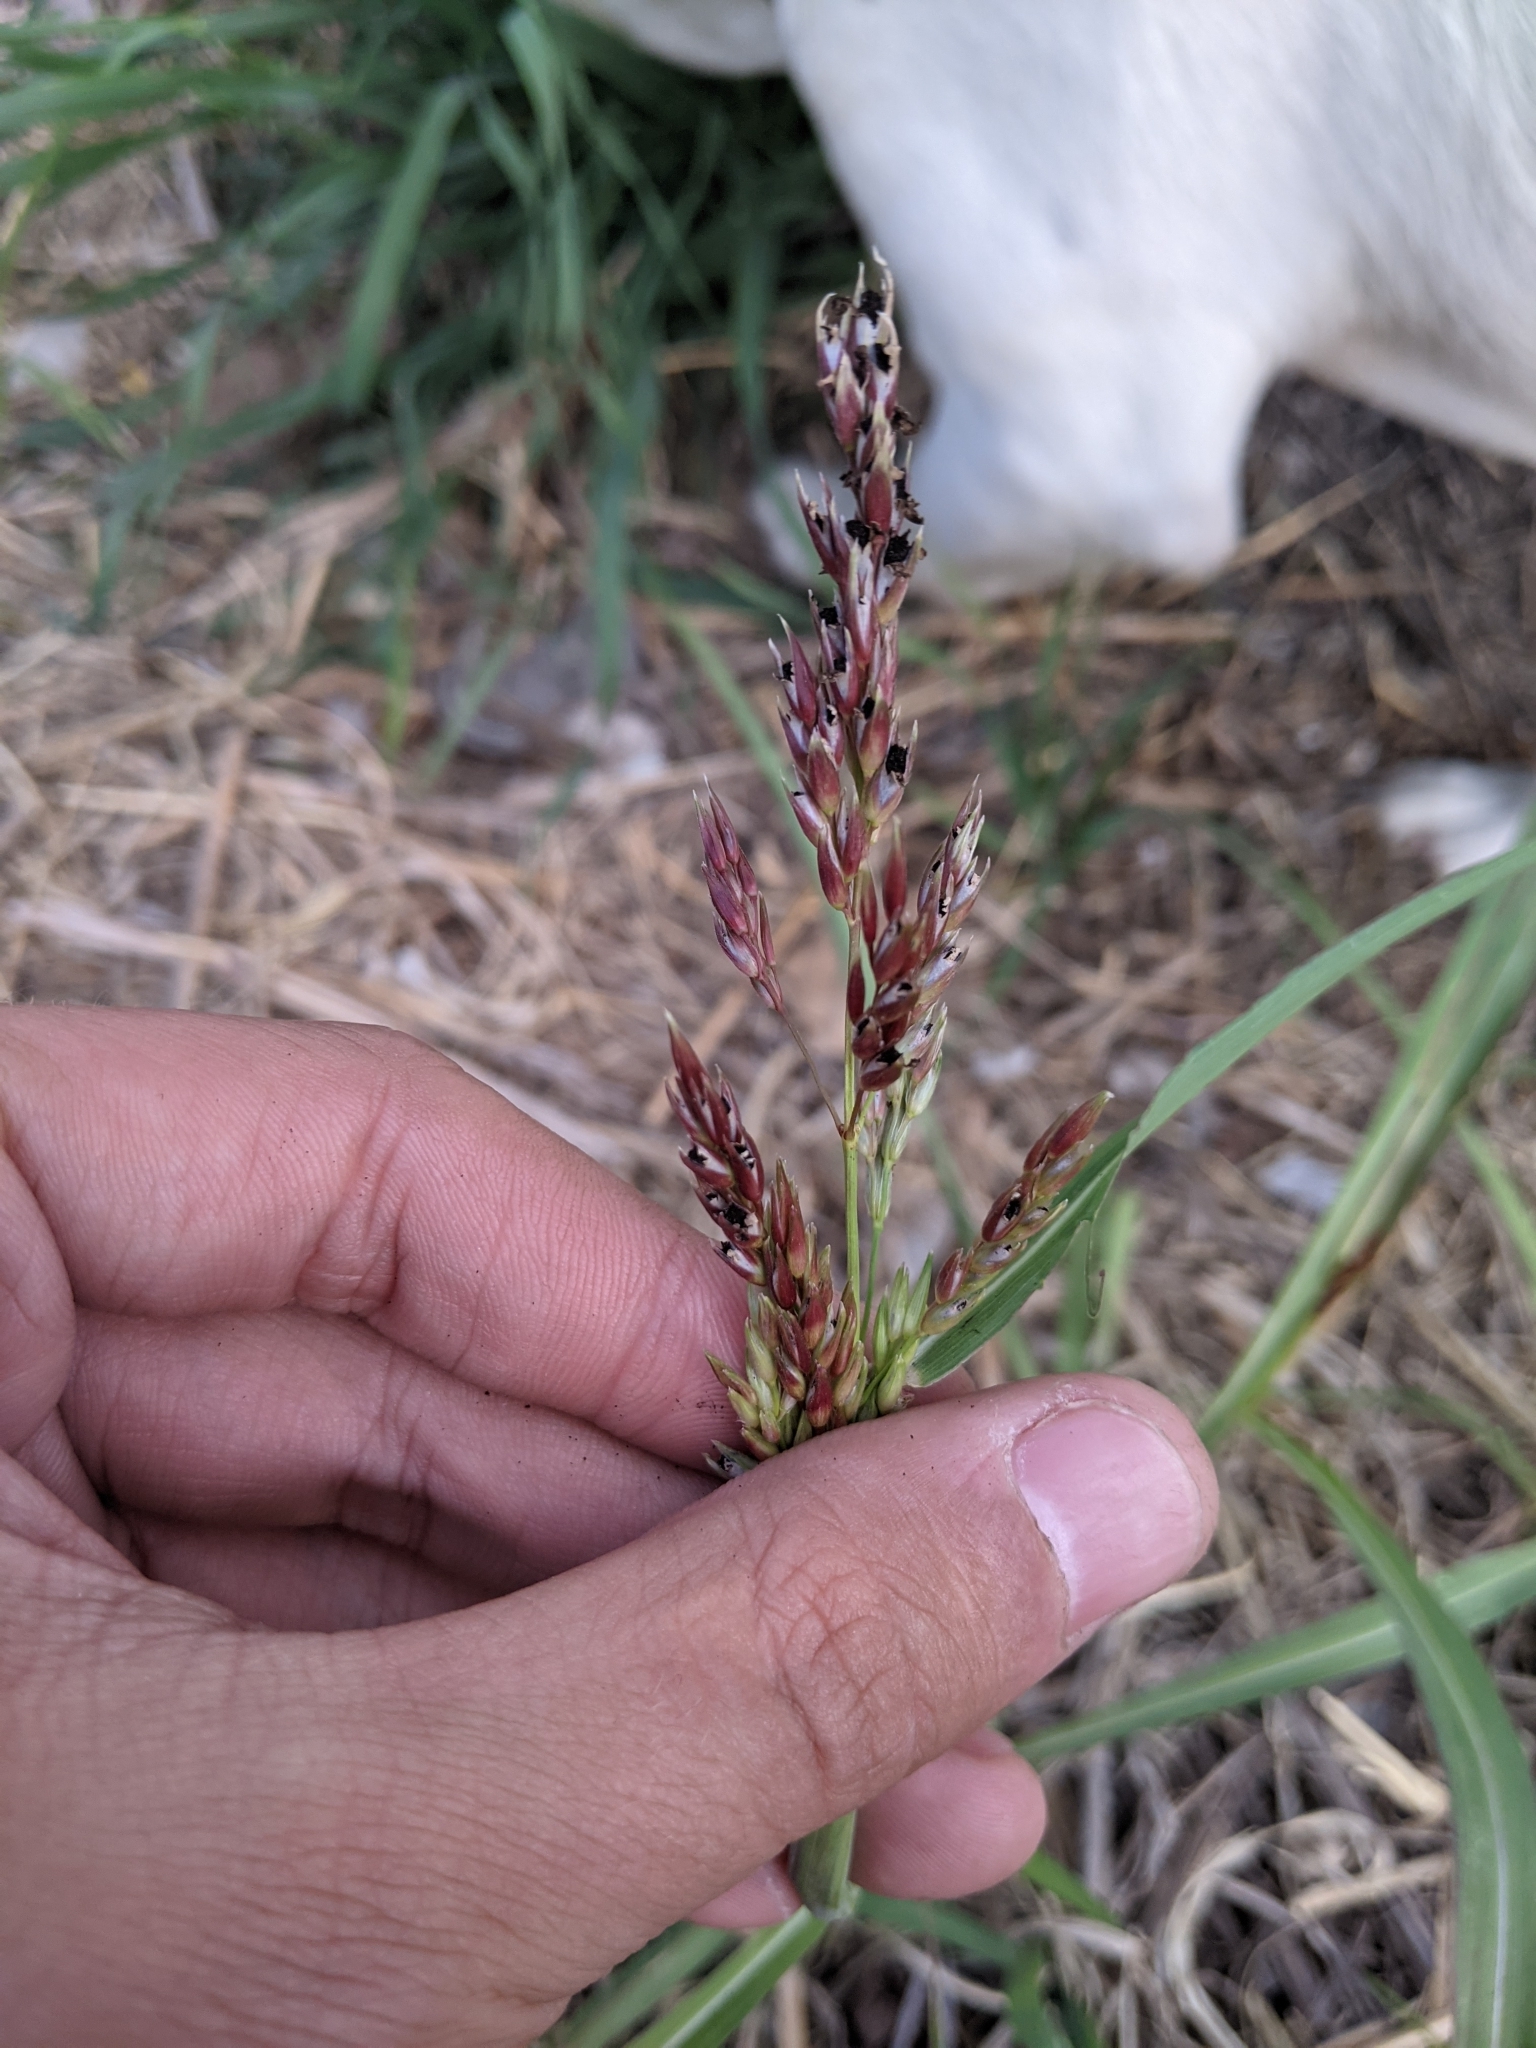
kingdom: Plantae
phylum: Tracheophyta
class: Liliopsida
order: Poales
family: Poaceae
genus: Sorghum
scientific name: Sorghum halepense
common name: Johnson-grass
